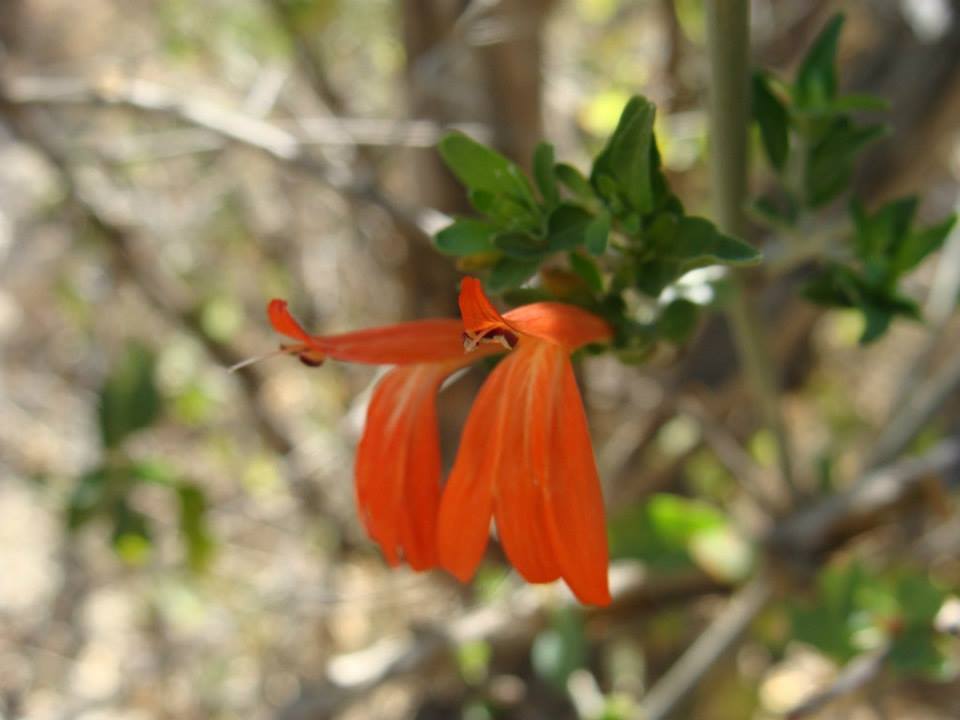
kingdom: Plantae
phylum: Tracheophyta
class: Magnoliopsida
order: Lamiales
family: Acanthaceae
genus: Justicia
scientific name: Justicia palmeri
